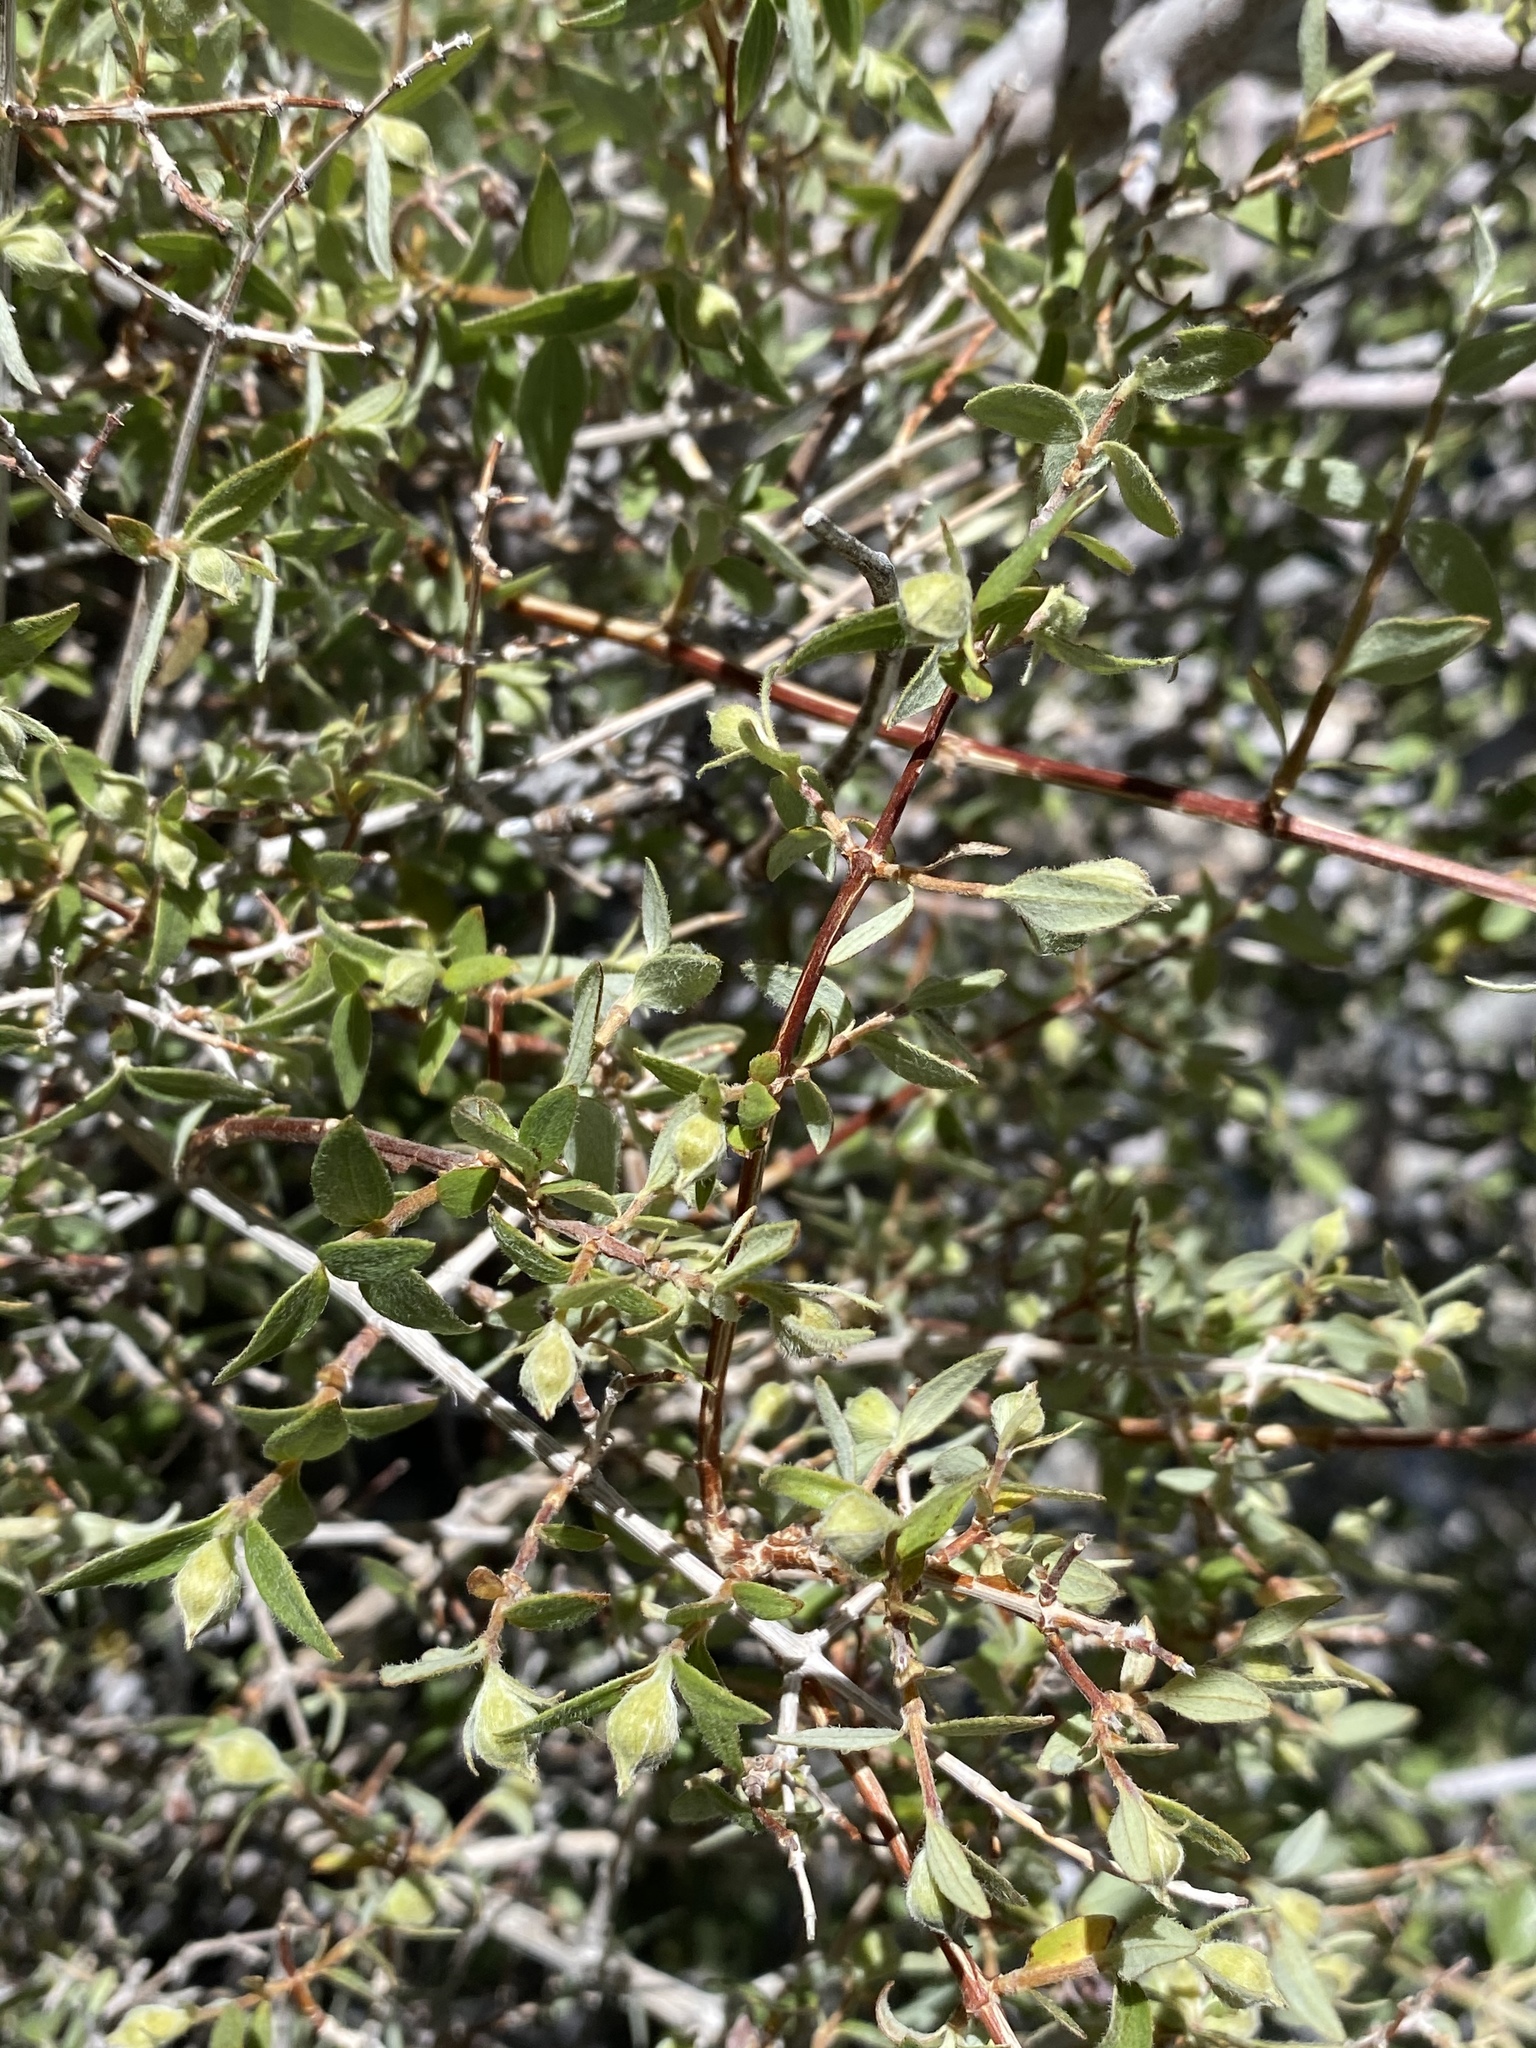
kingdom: Plantae
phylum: Tracheophyta
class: Magnoliopsida
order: Cornales
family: Hydrangeaceae
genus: Philadelphus
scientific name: Philadelphus microphyllus
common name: Desert mock orange
